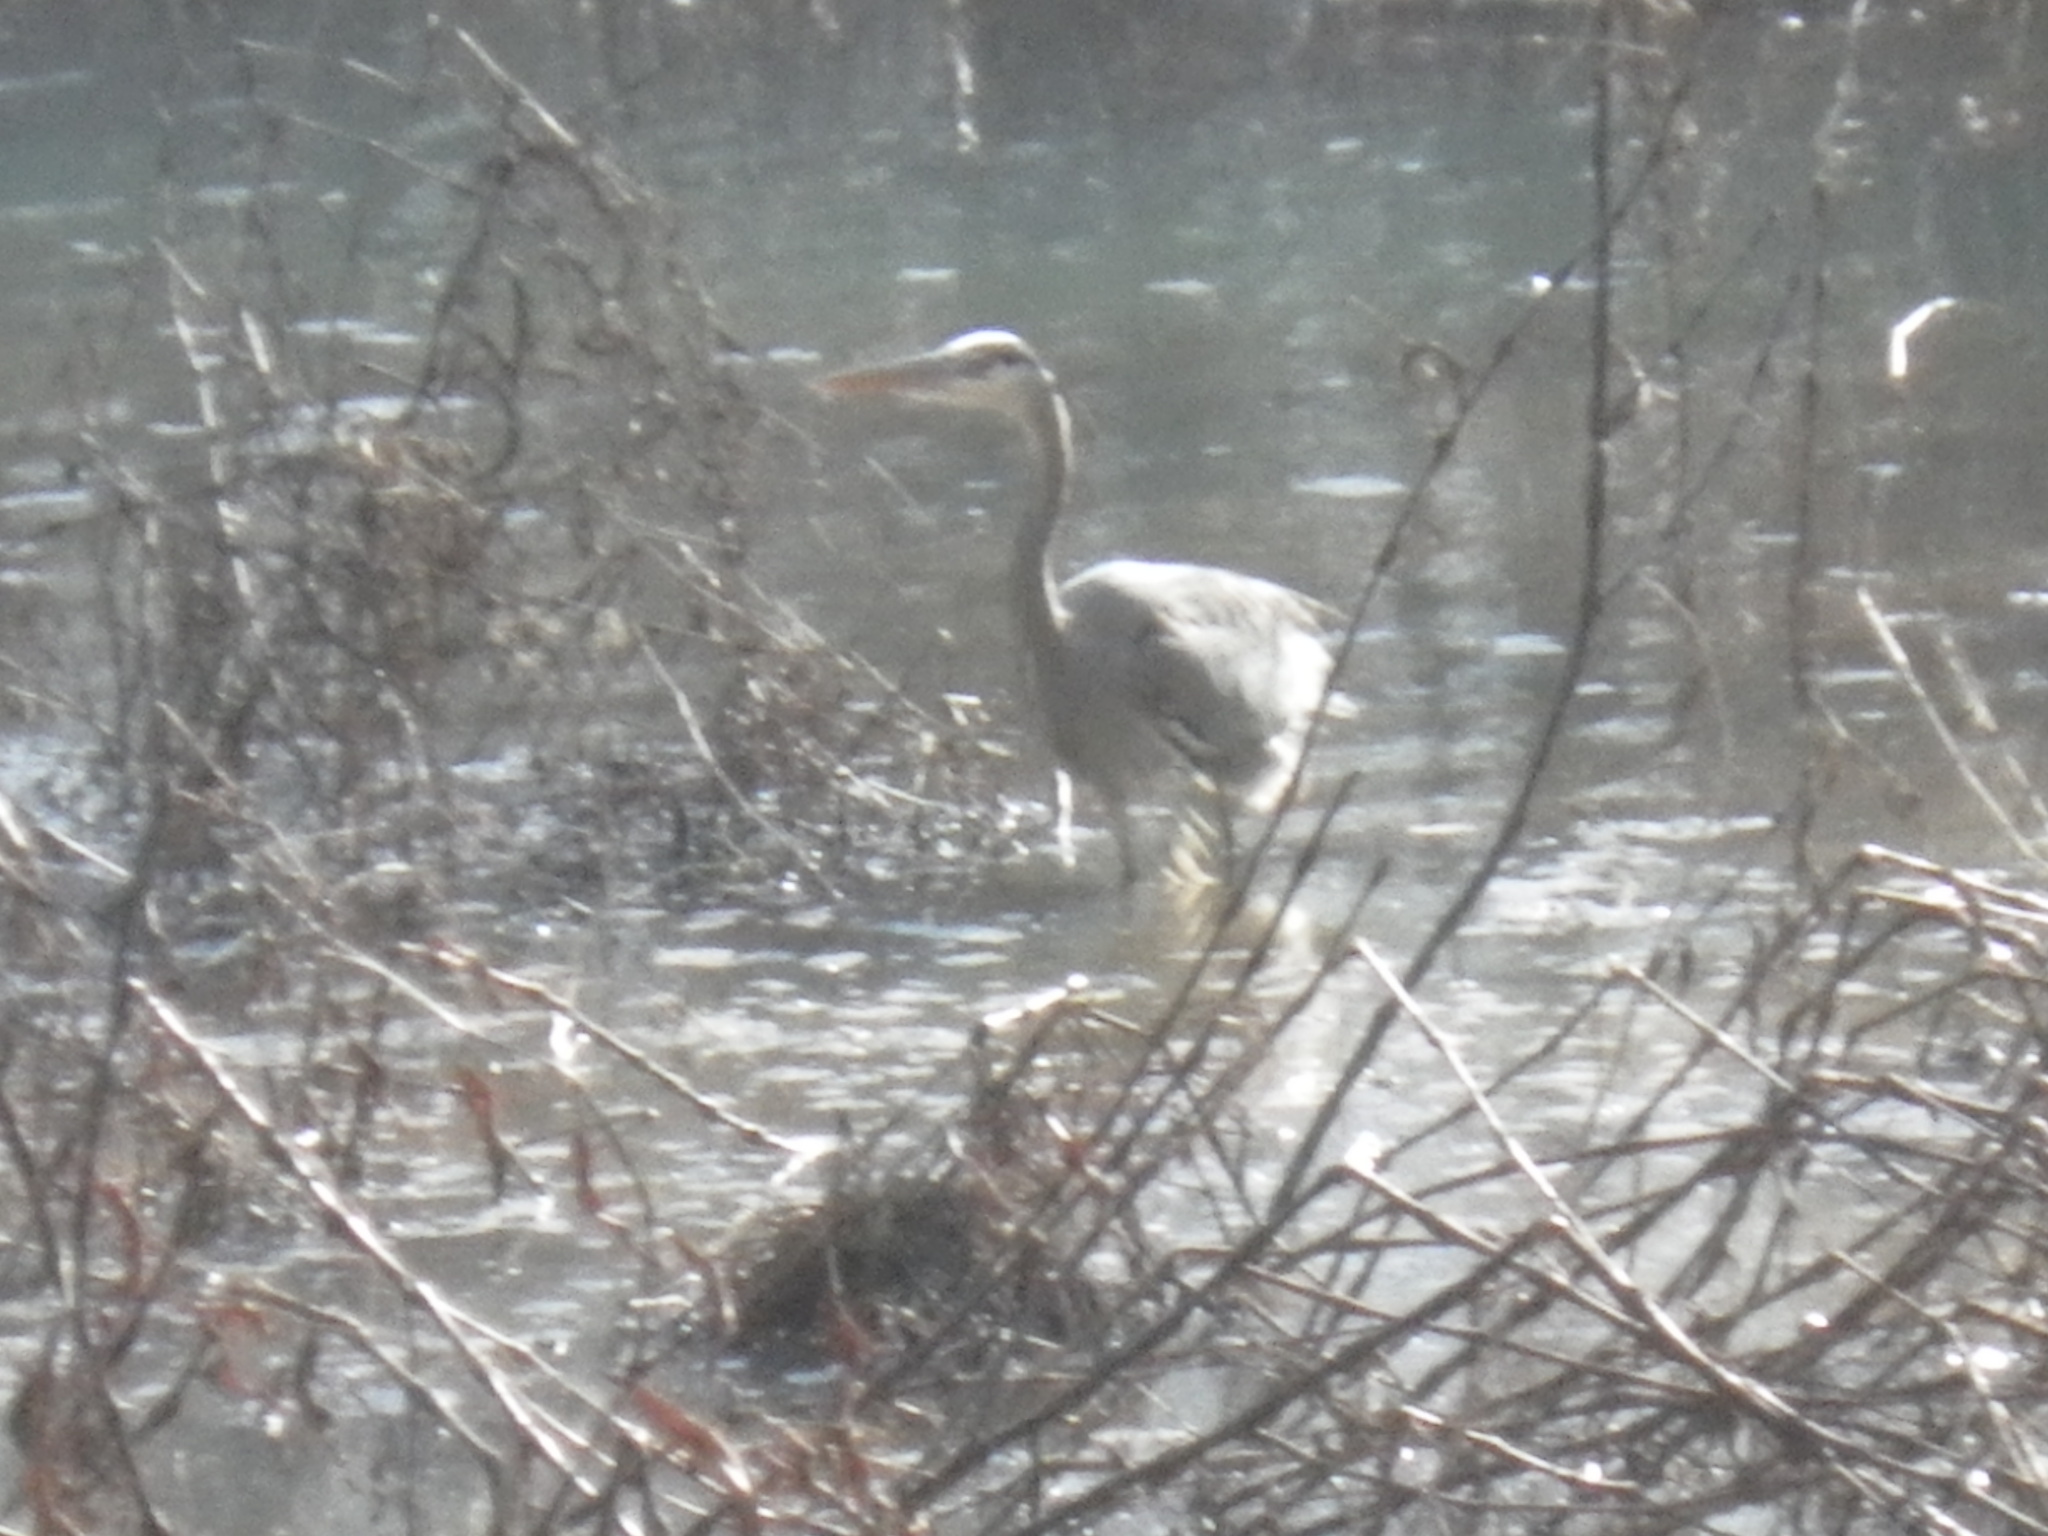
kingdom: Animalia
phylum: Chordata
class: Aves
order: Pelecaniformes
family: Ardeidae
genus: Ardea
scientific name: Ardea herodias
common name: Great blue heron
